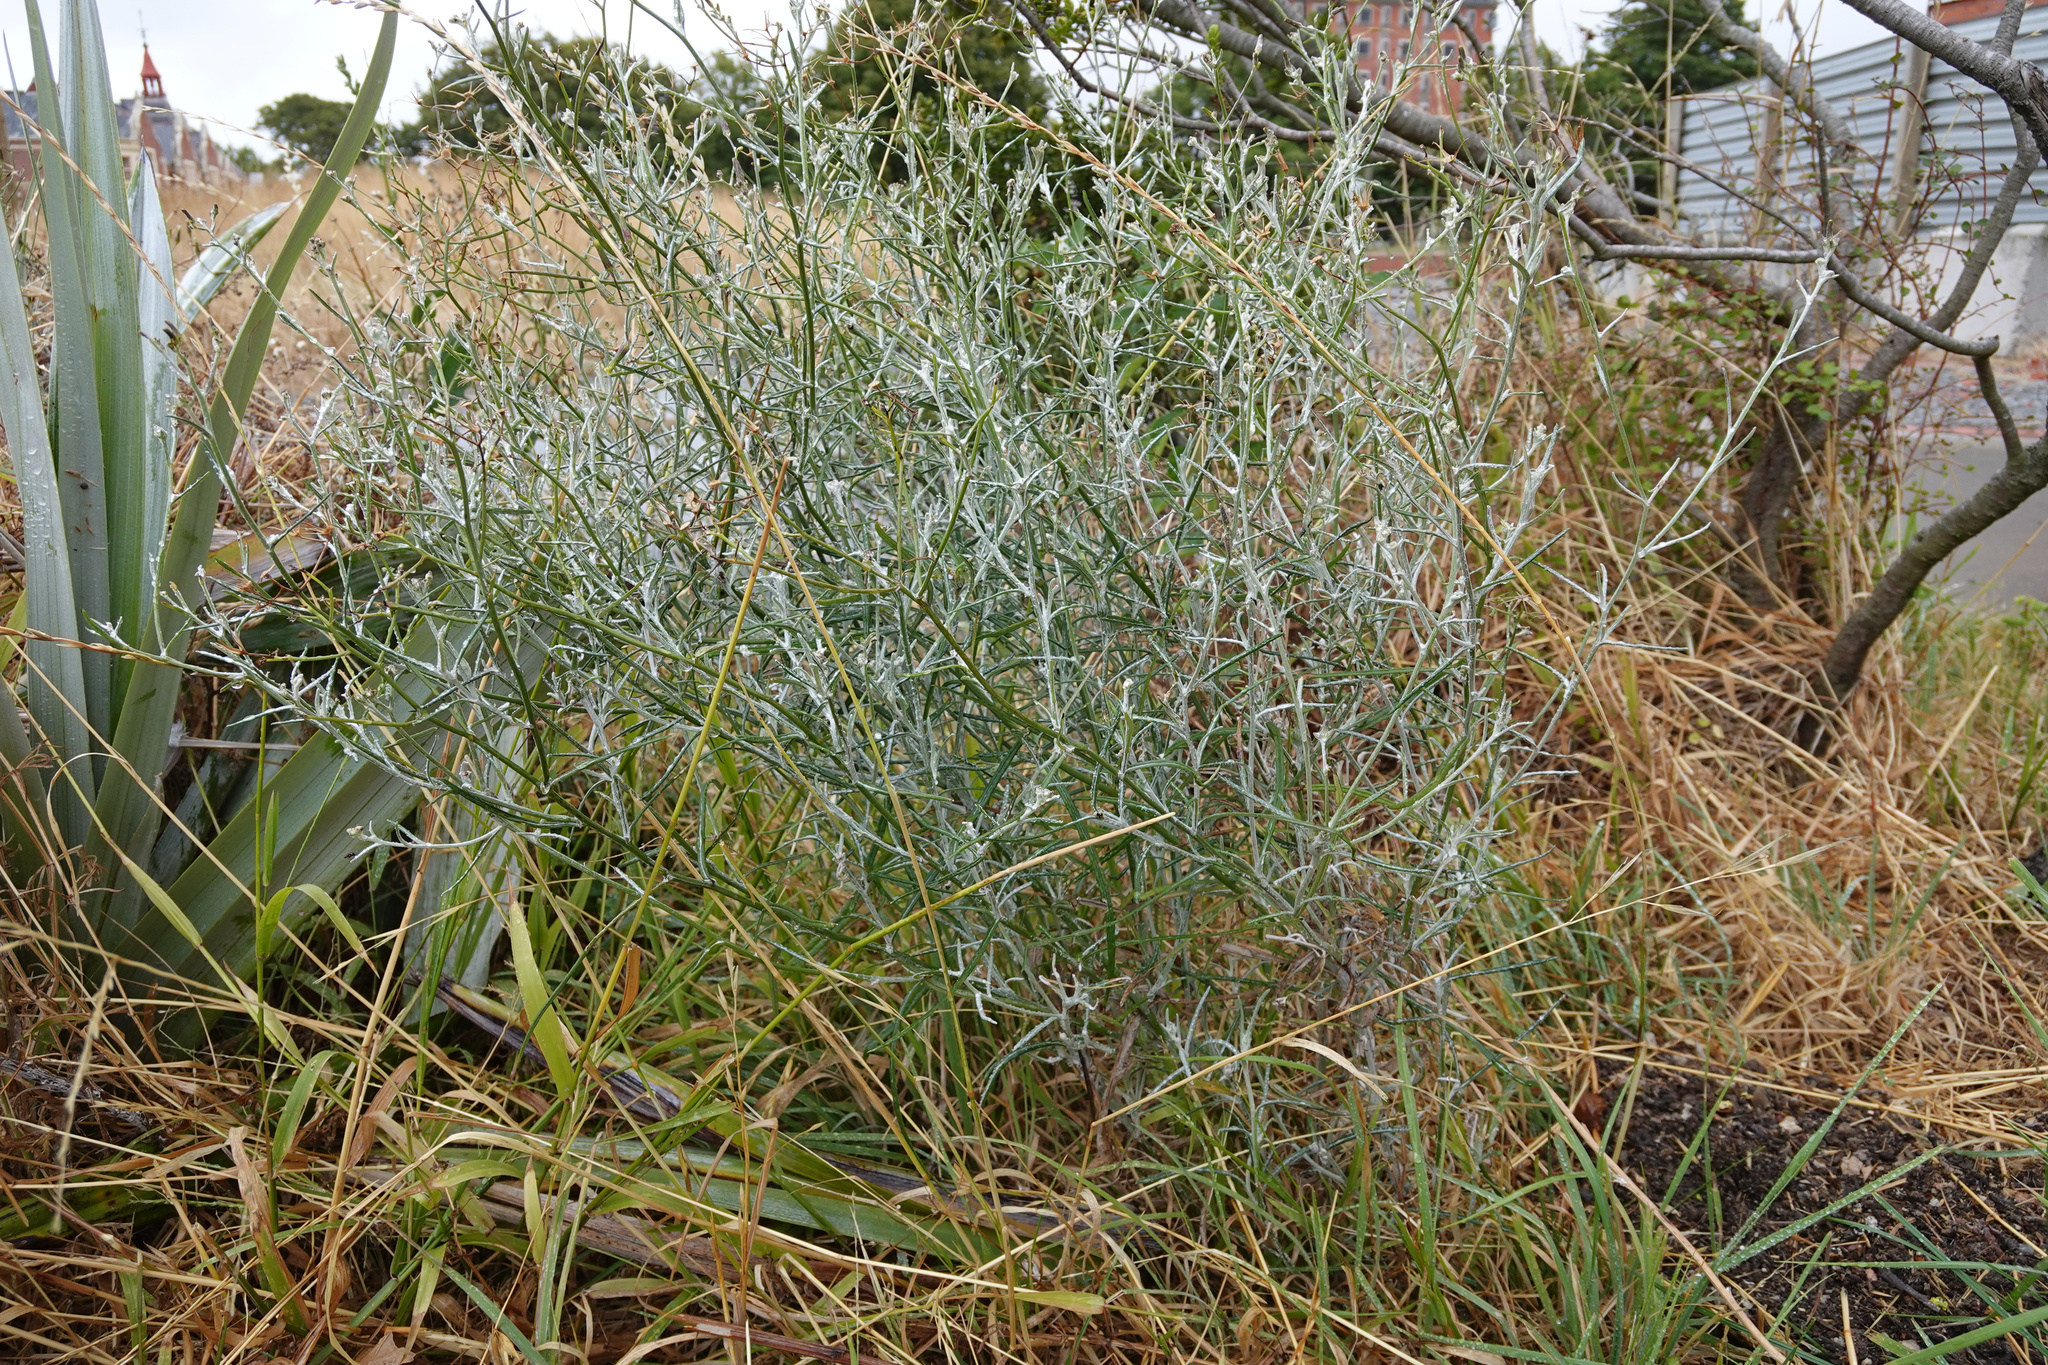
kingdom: Plantae
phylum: Tracheophyta
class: Magnoliopsida
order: Asterales
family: Asteraceae
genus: Senecio
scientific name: Senecio quadridentatus
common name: Cotton fireweed
